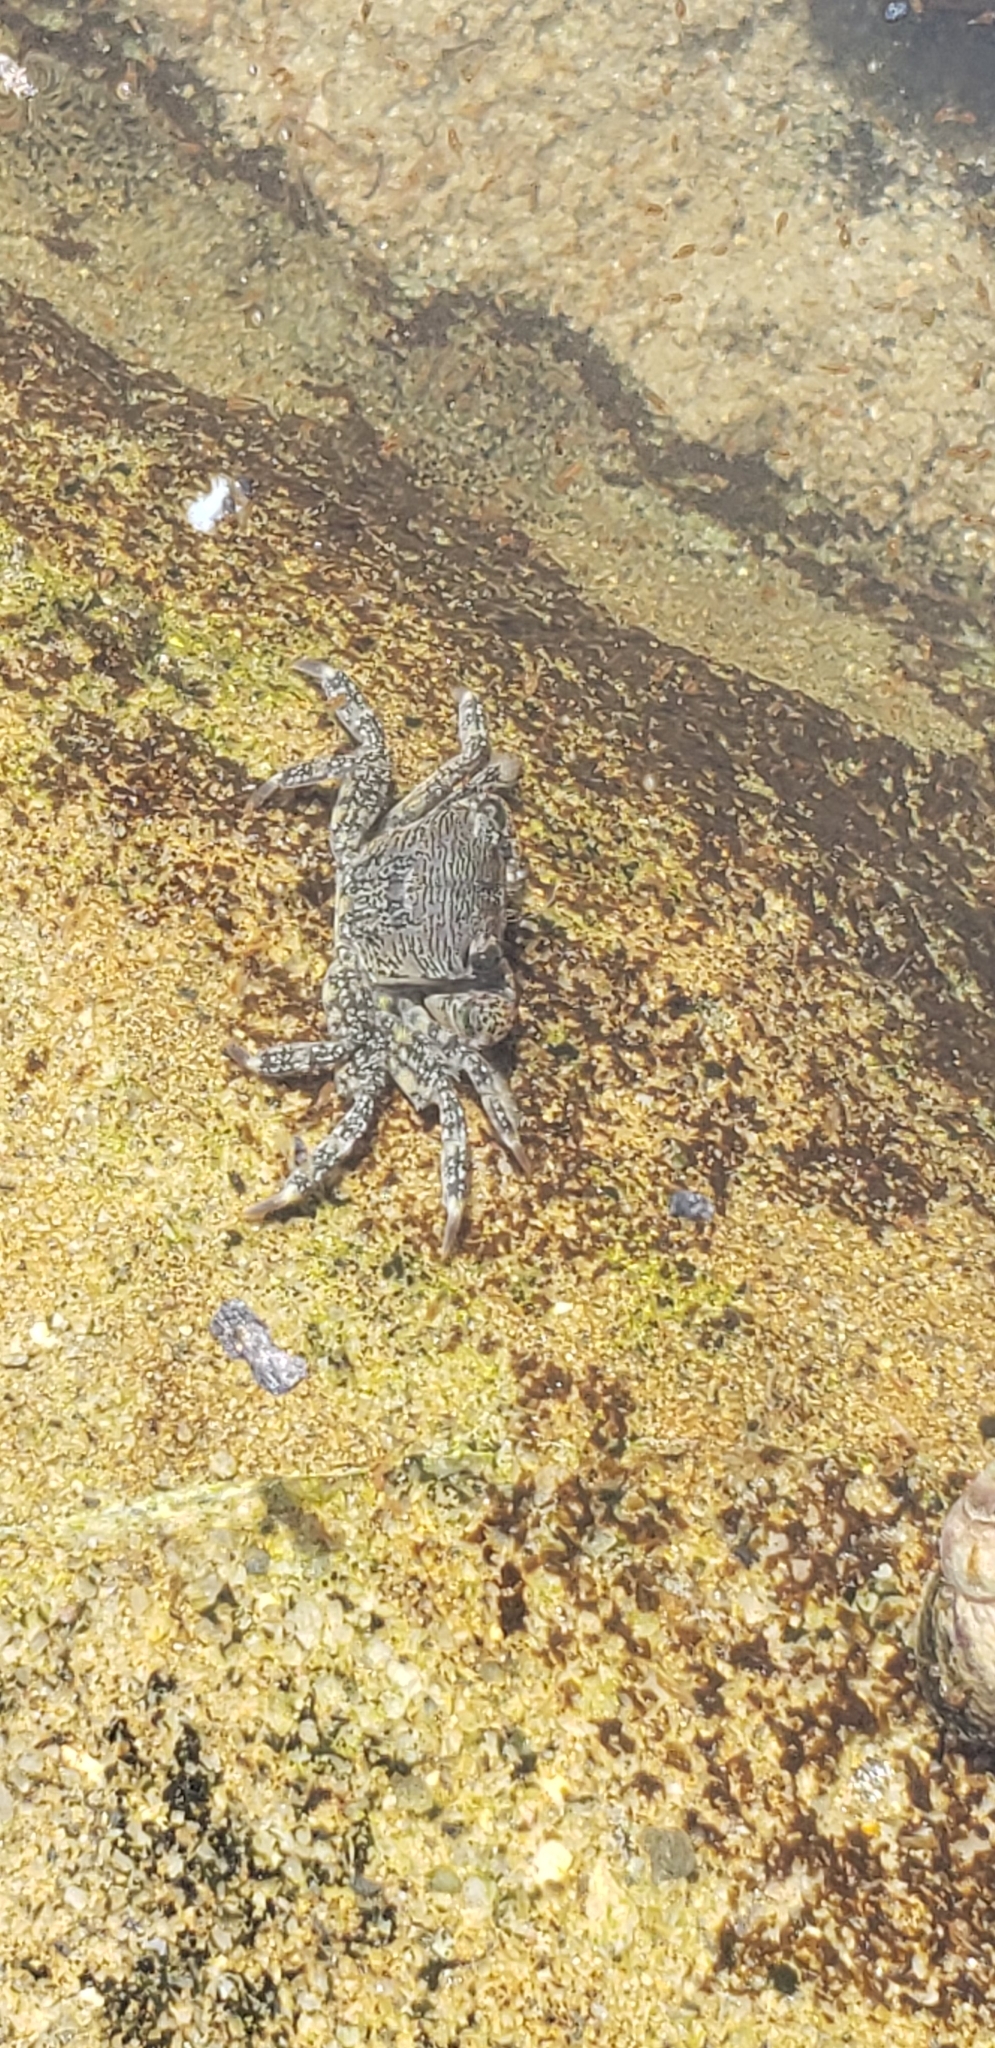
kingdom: Animalia
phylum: Arthropoda
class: Malacostraca
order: Decapoda
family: Grapsidae
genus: Pachygrapsus
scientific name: Pachygrapsus crassipes
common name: Striped shore crab
